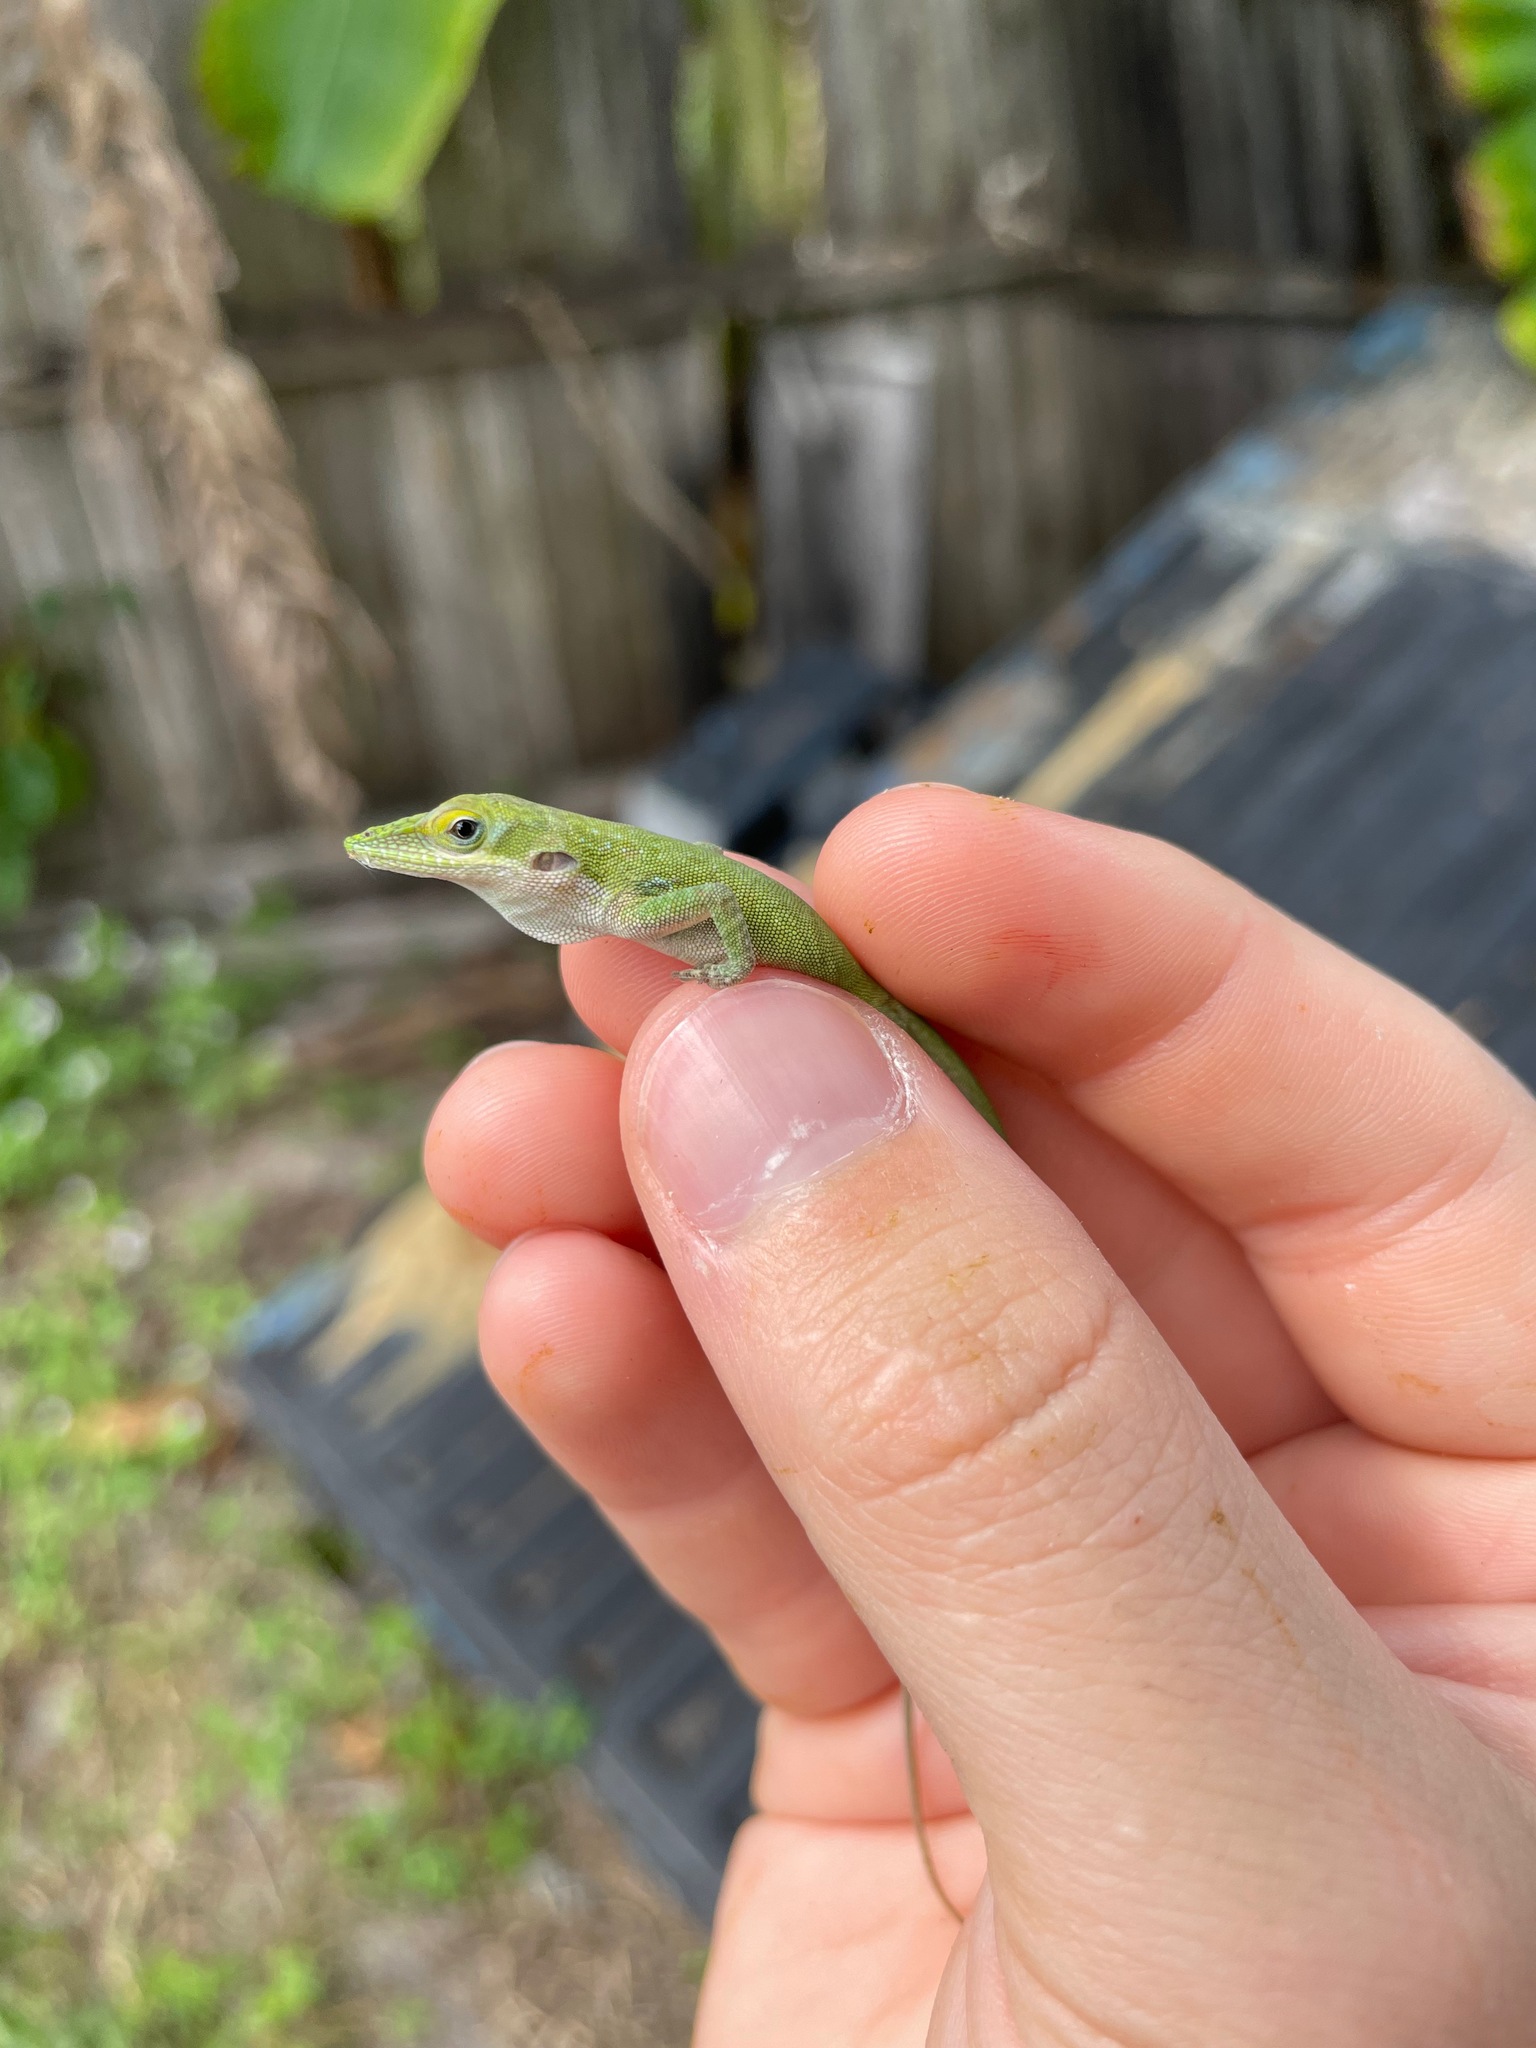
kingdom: Animalia
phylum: Chordata
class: Squamata
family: Dactyloidae
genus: Anolis
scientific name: Anolis allisoni
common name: Allison's anole
